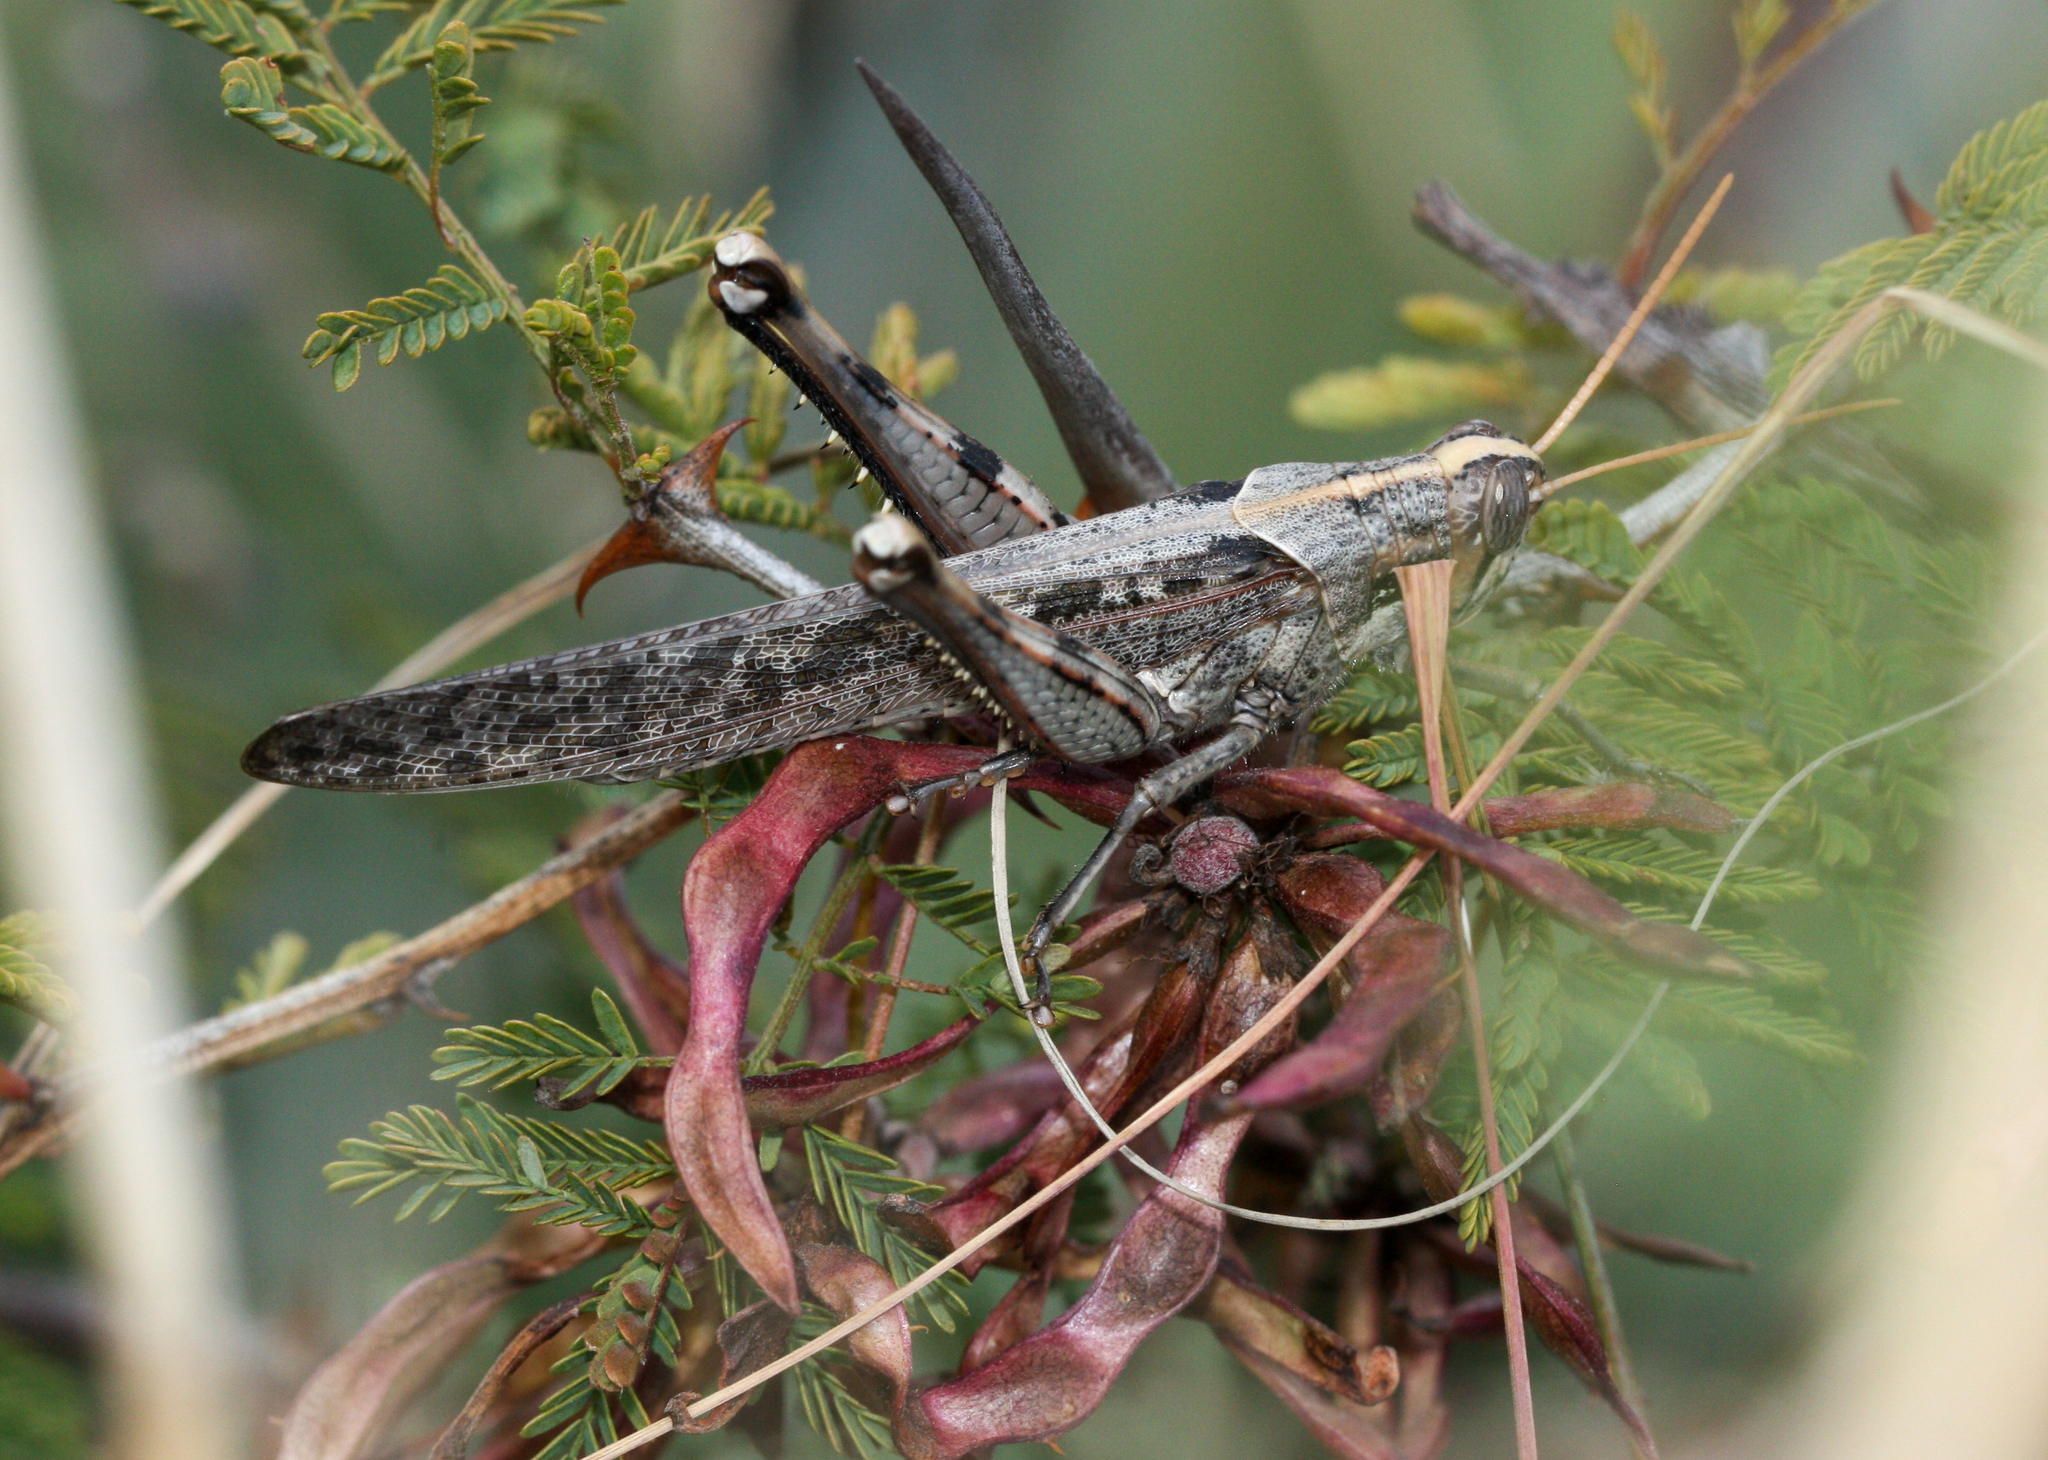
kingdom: Animalia
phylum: Arthropoda
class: Insecta
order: Orthoptera
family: Acrididae
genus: Schistocerca
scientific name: Schistocerca nitens
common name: Vagrant grasshopper
